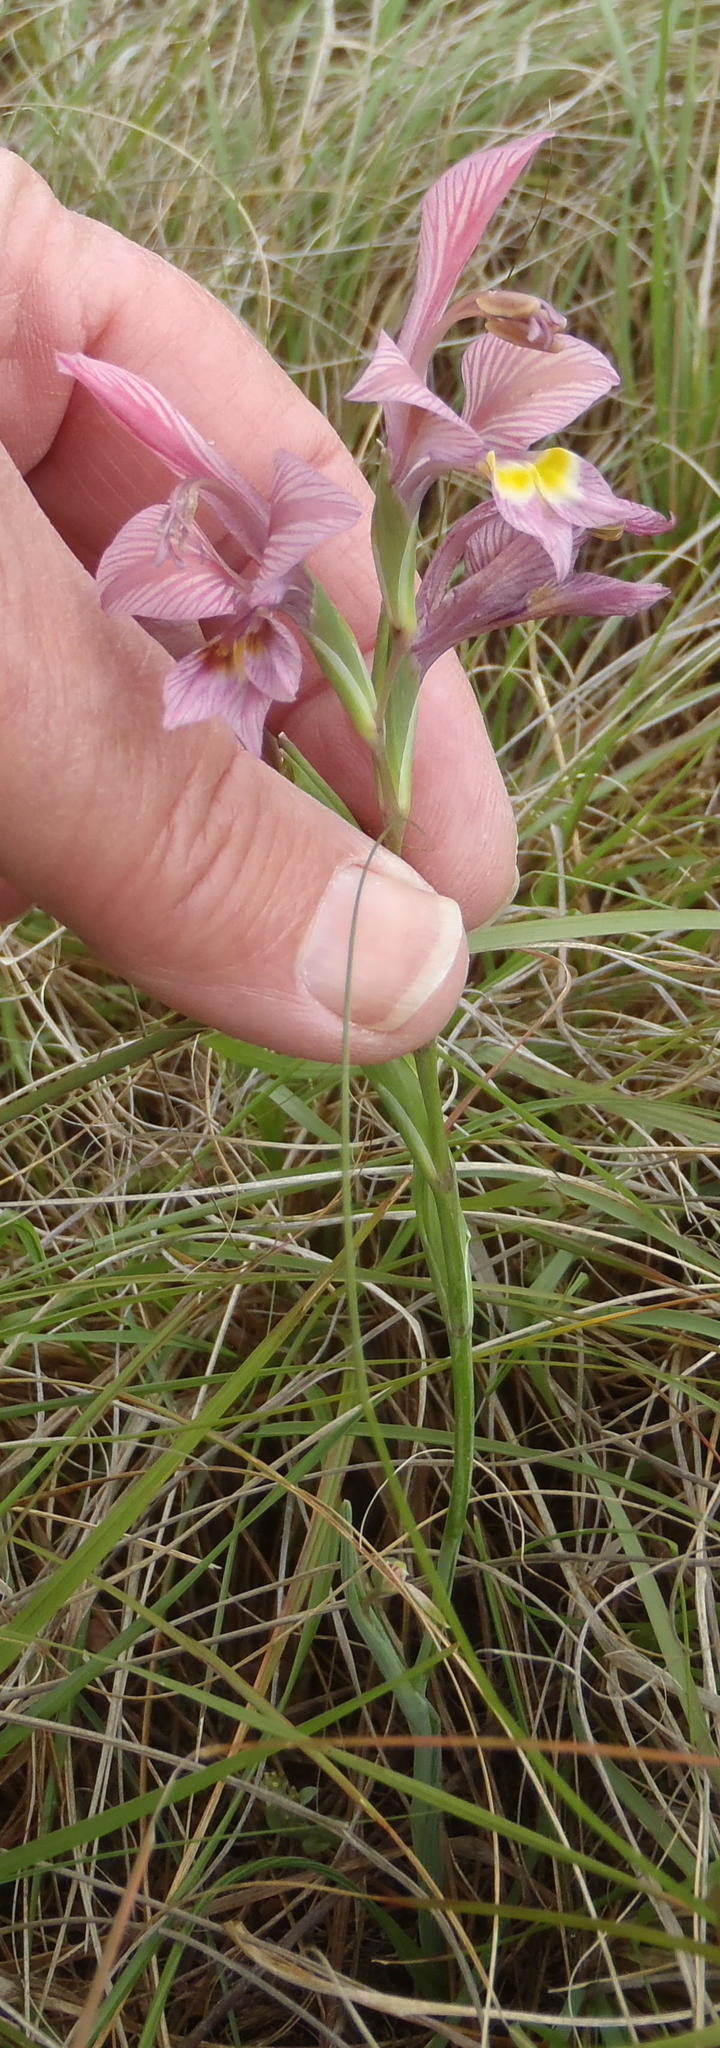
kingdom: Plantae
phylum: Tracheophyta
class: Liliopsida
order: Asparagales
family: Iridaceae
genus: Gladiolus
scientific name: Gladiolus virescens
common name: Yellow kalkoentjie
